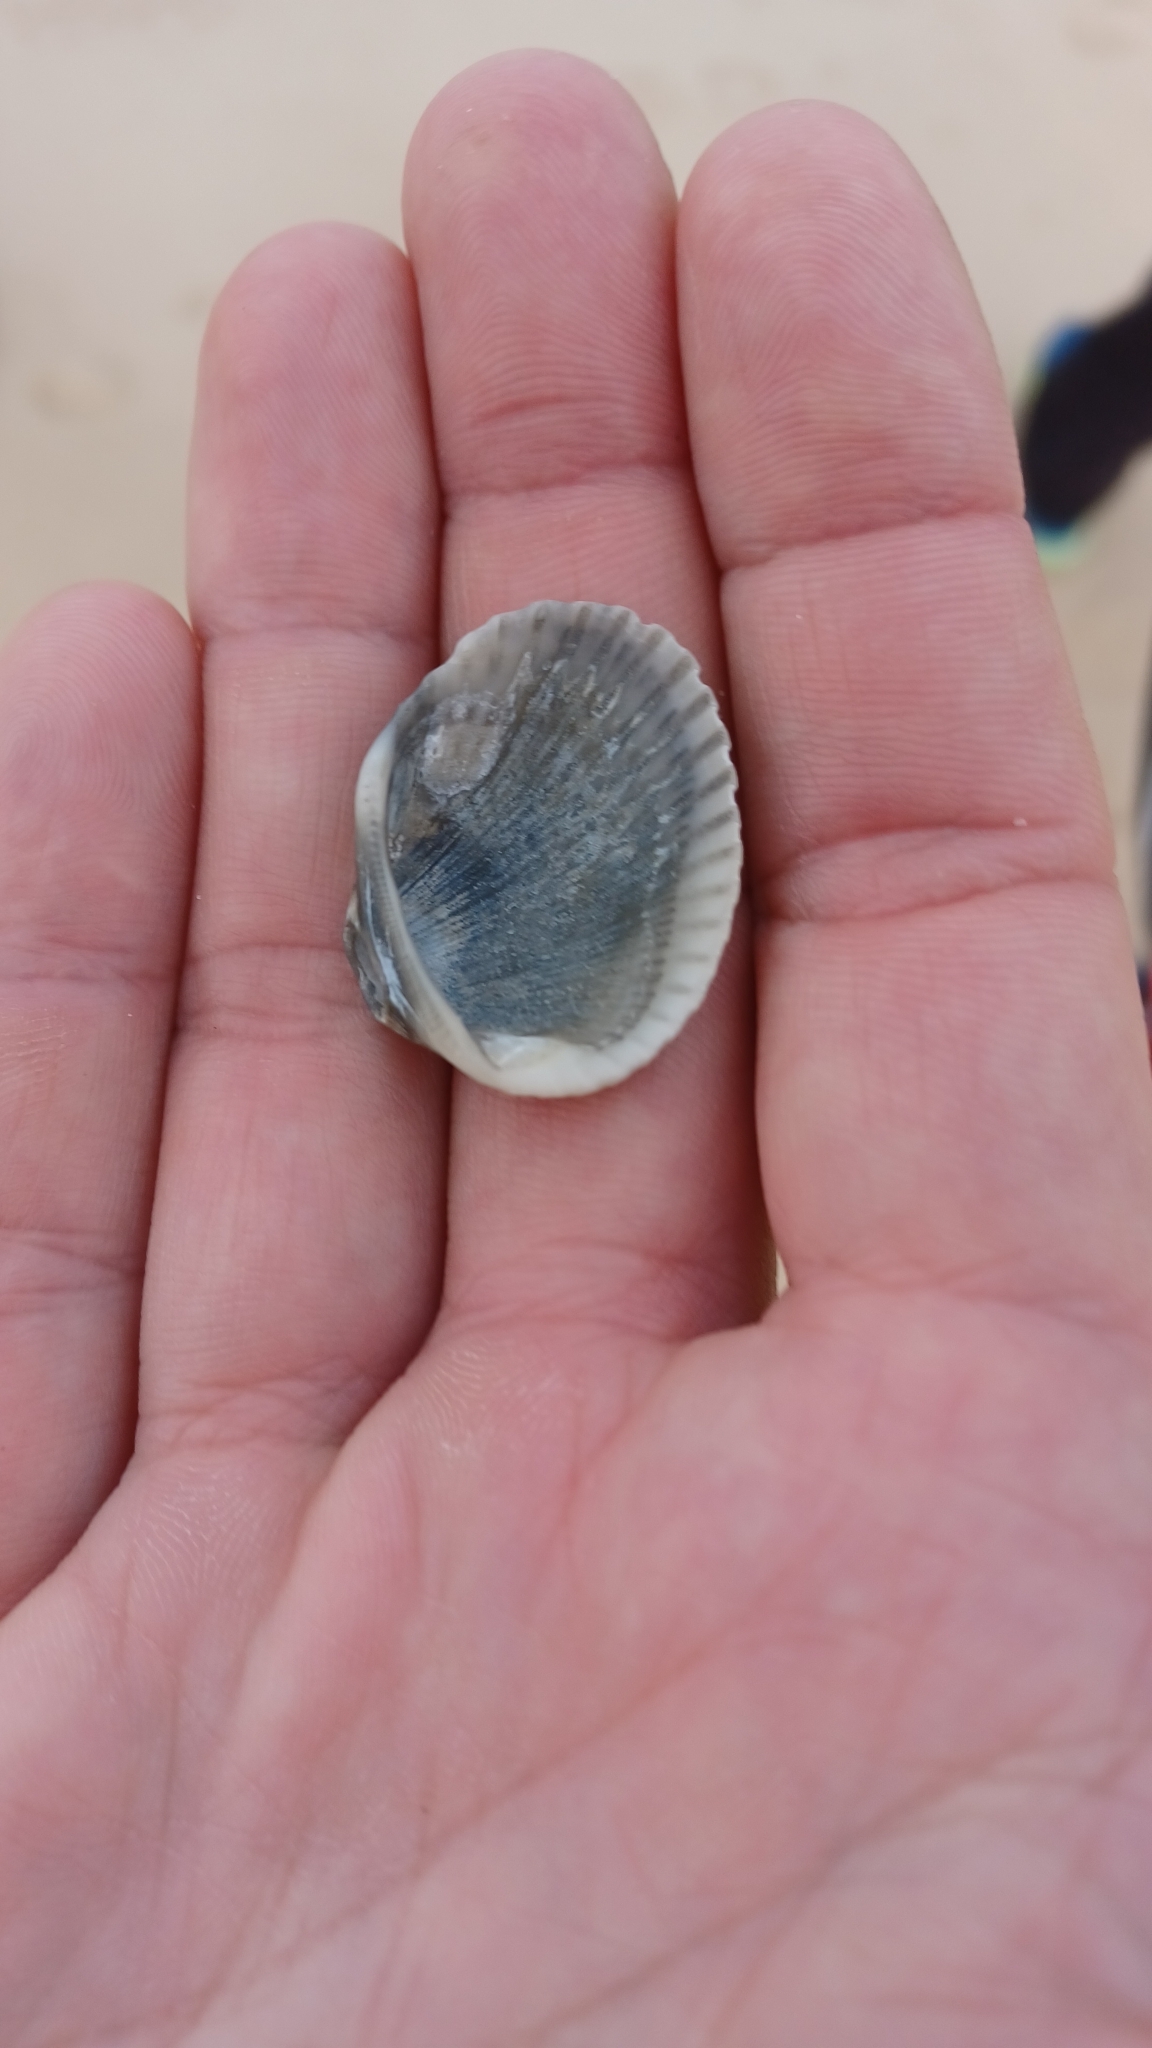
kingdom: Animalia
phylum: Mollusca
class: Bivalvia
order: Arcida
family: Arcidae
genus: Anadara
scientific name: Anadara trapezia
